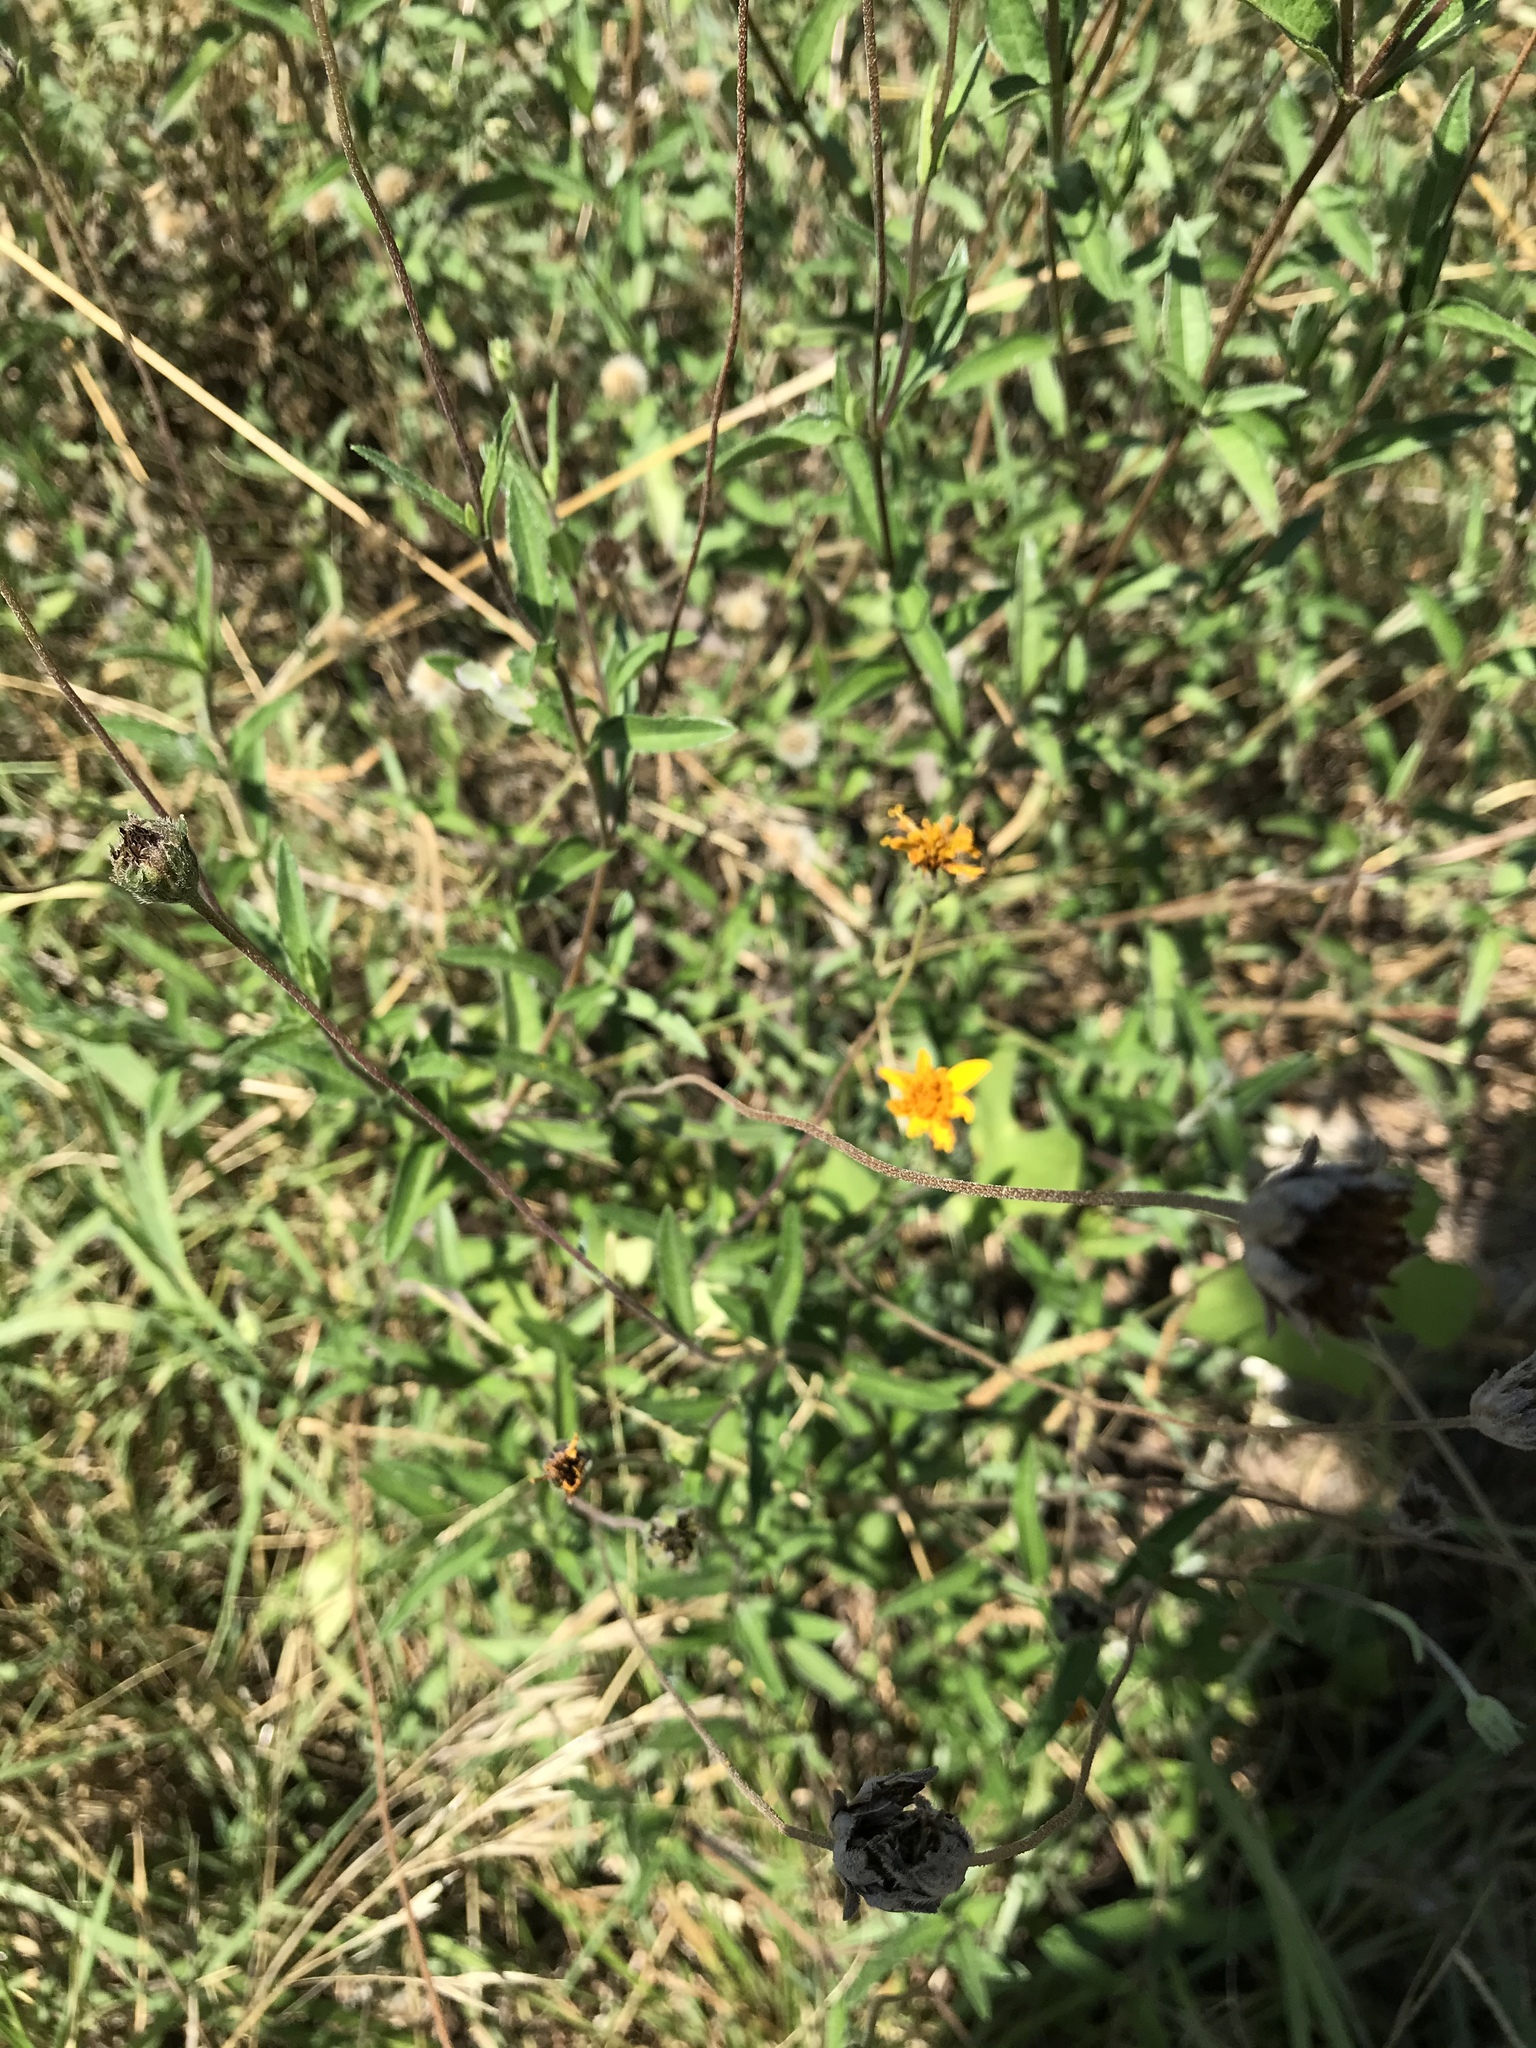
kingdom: Plantae
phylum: Tracheophyta
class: Magnoliopsida
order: Asterales
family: Asteraceae
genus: Wedelia
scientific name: Wedelia acapulcensis
